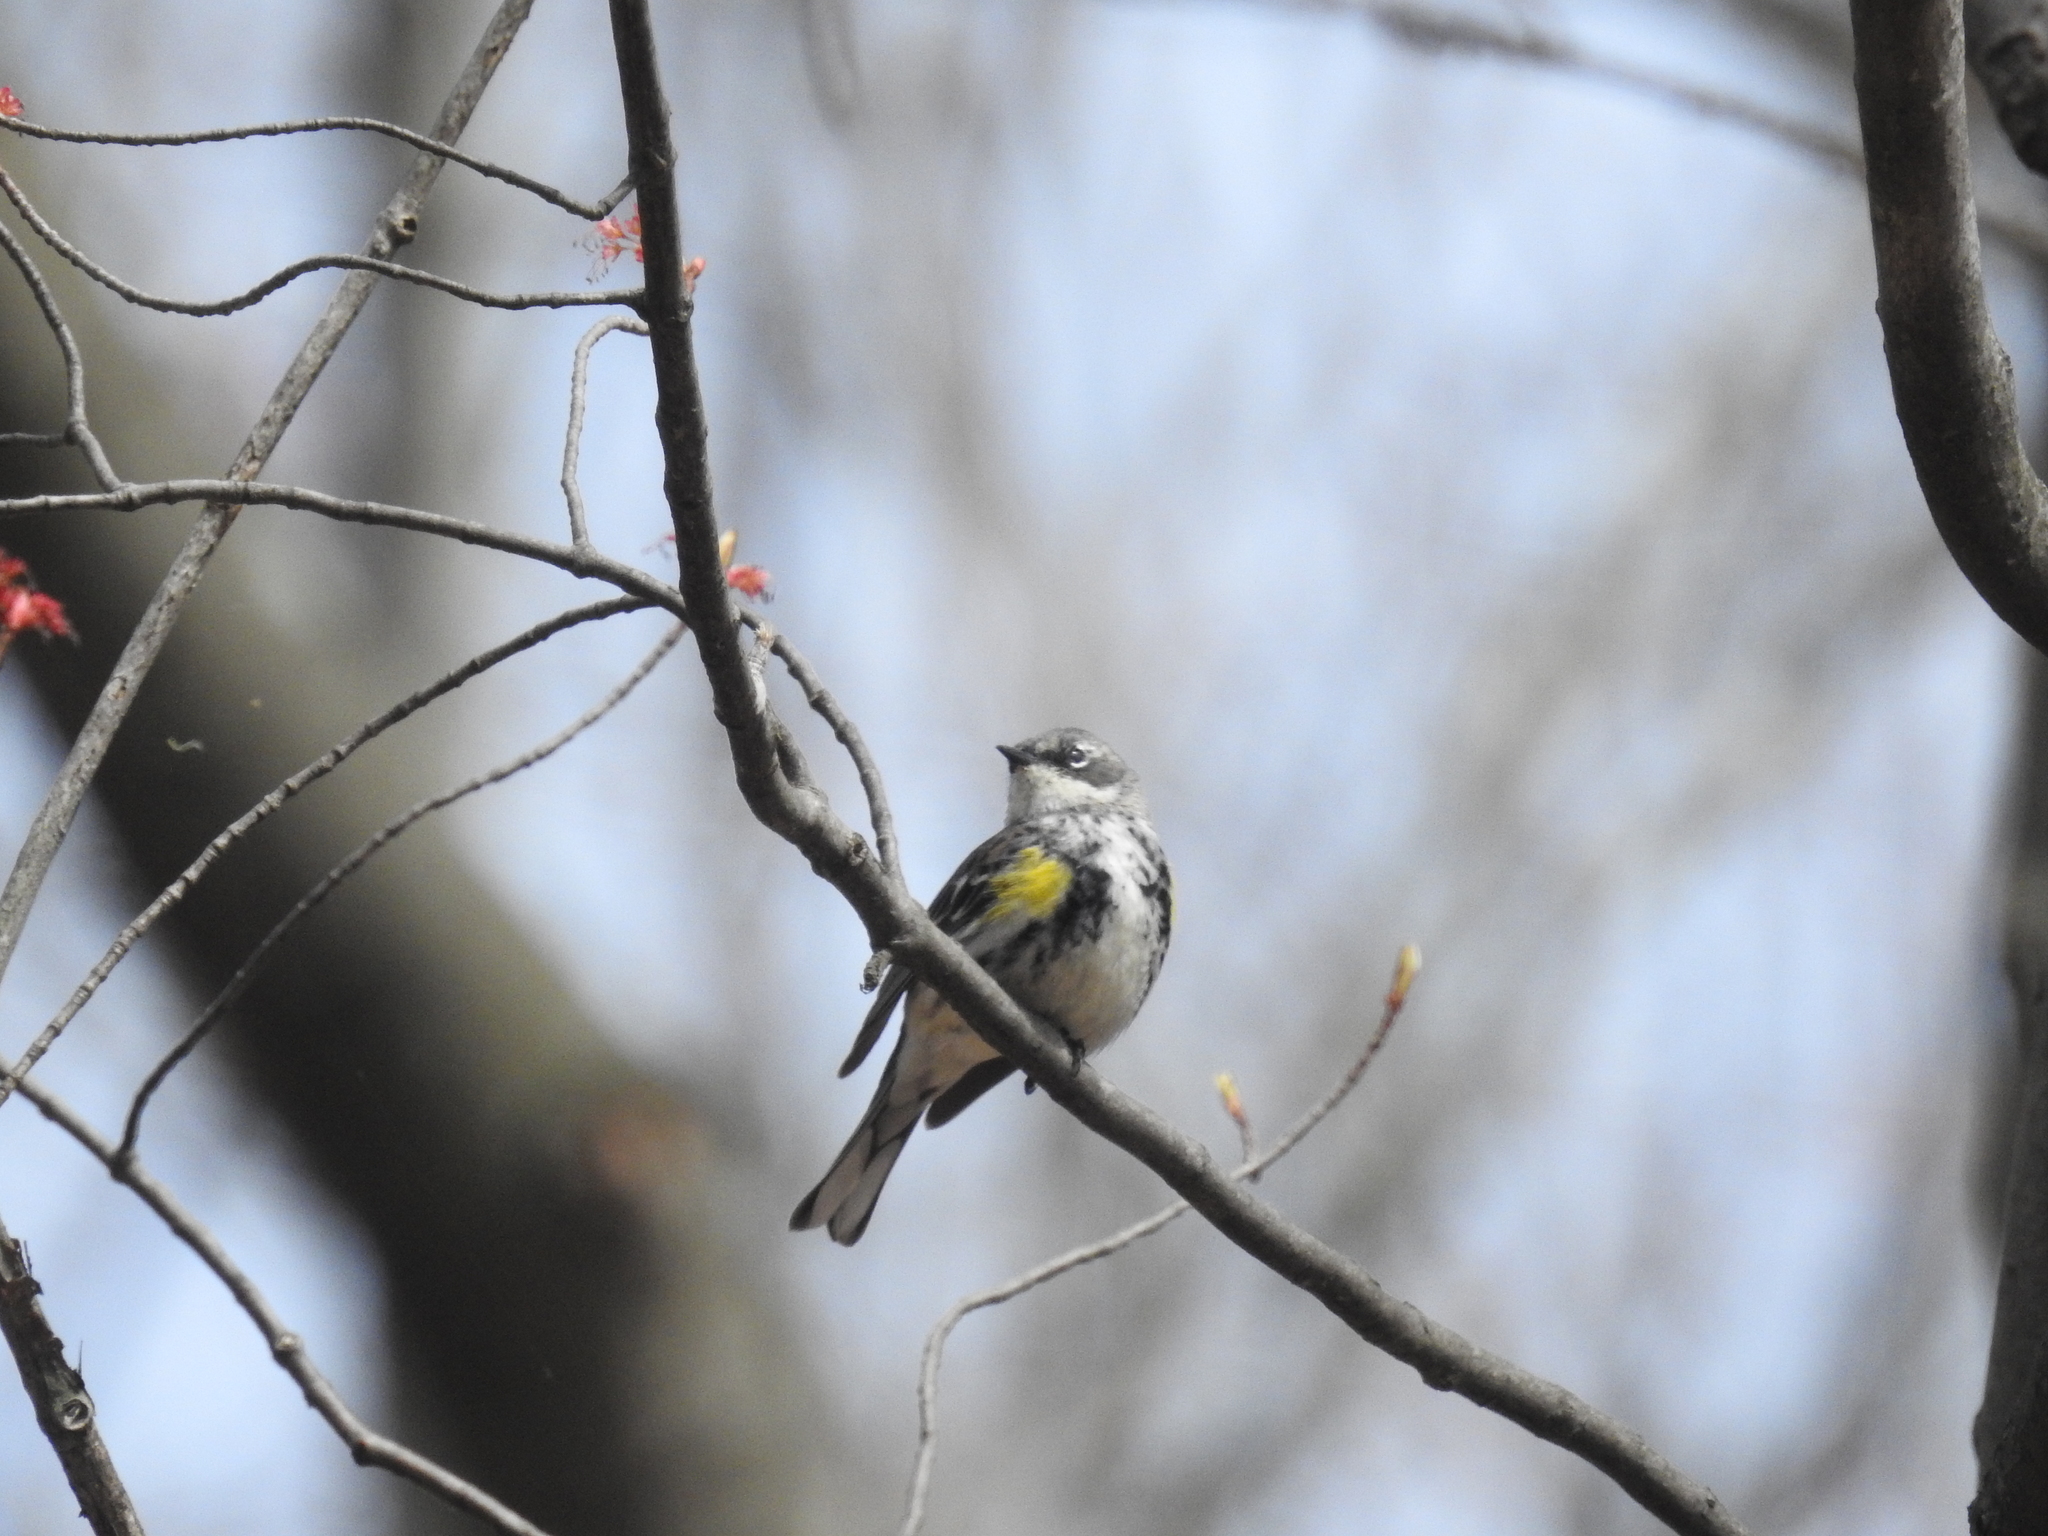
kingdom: Animalia
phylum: Chordata
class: Aves
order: Passeriformes
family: Parulidae
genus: Setophaga
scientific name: Setophaga coronata
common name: Myrtle warbler
